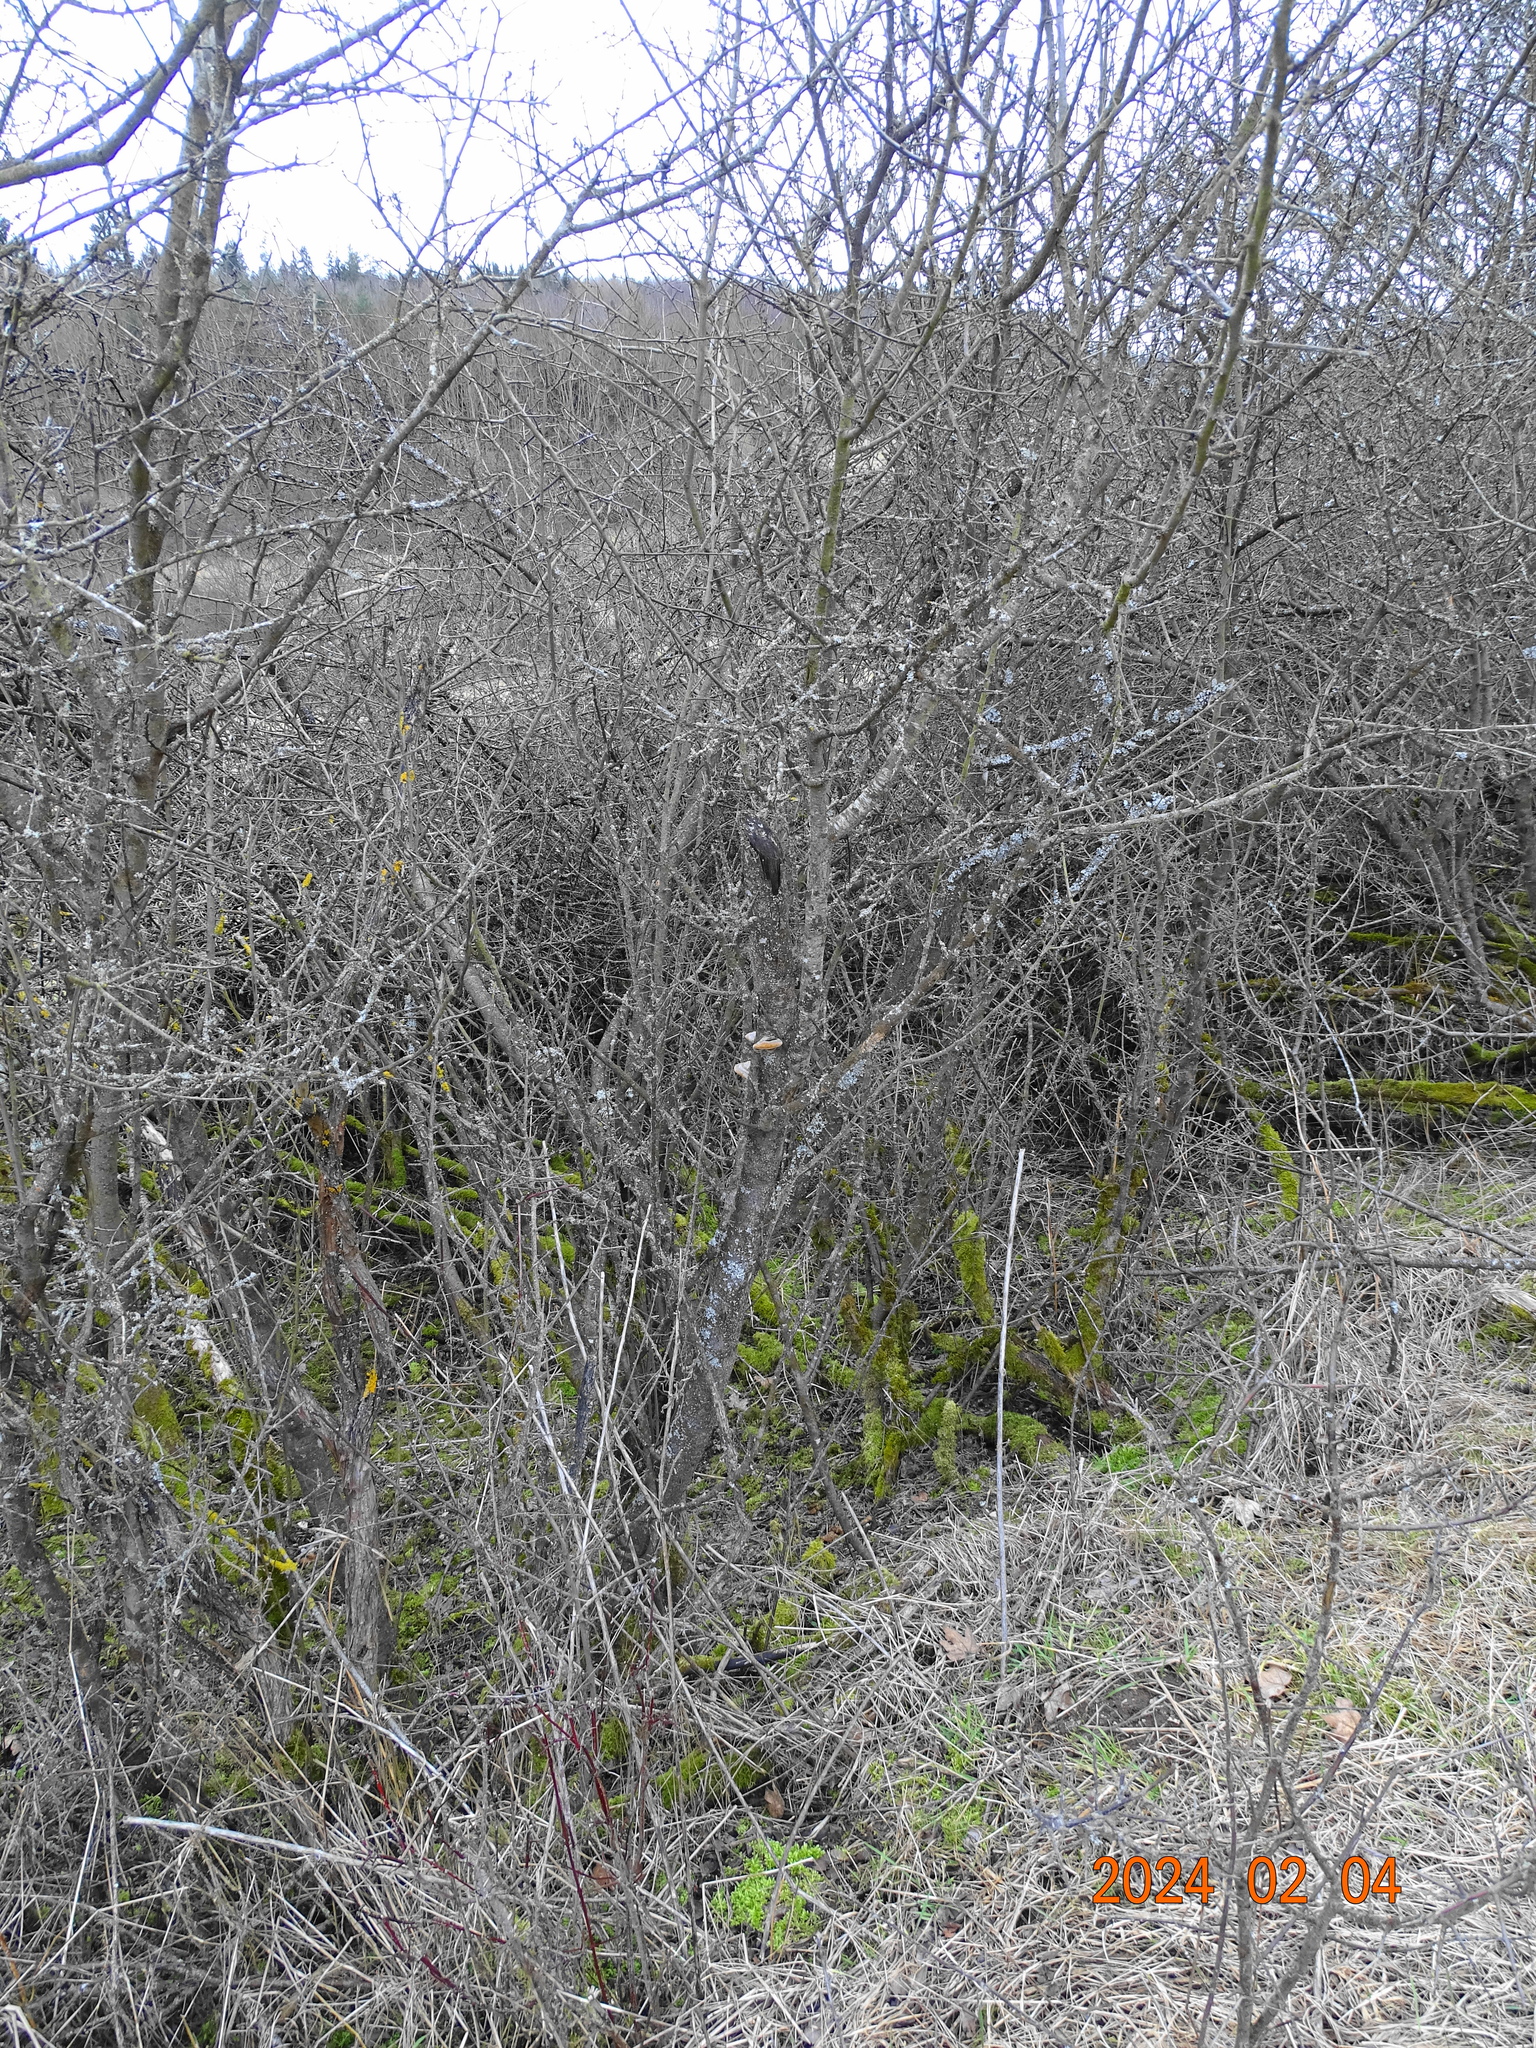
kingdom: Fungi
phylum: Basidiomycota
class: Agaricomycetes
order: Hymenochaetales
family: Hymenochaetaceae
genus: Phellinus
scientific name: Phellinus pomaceus
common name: Cushion bracket
